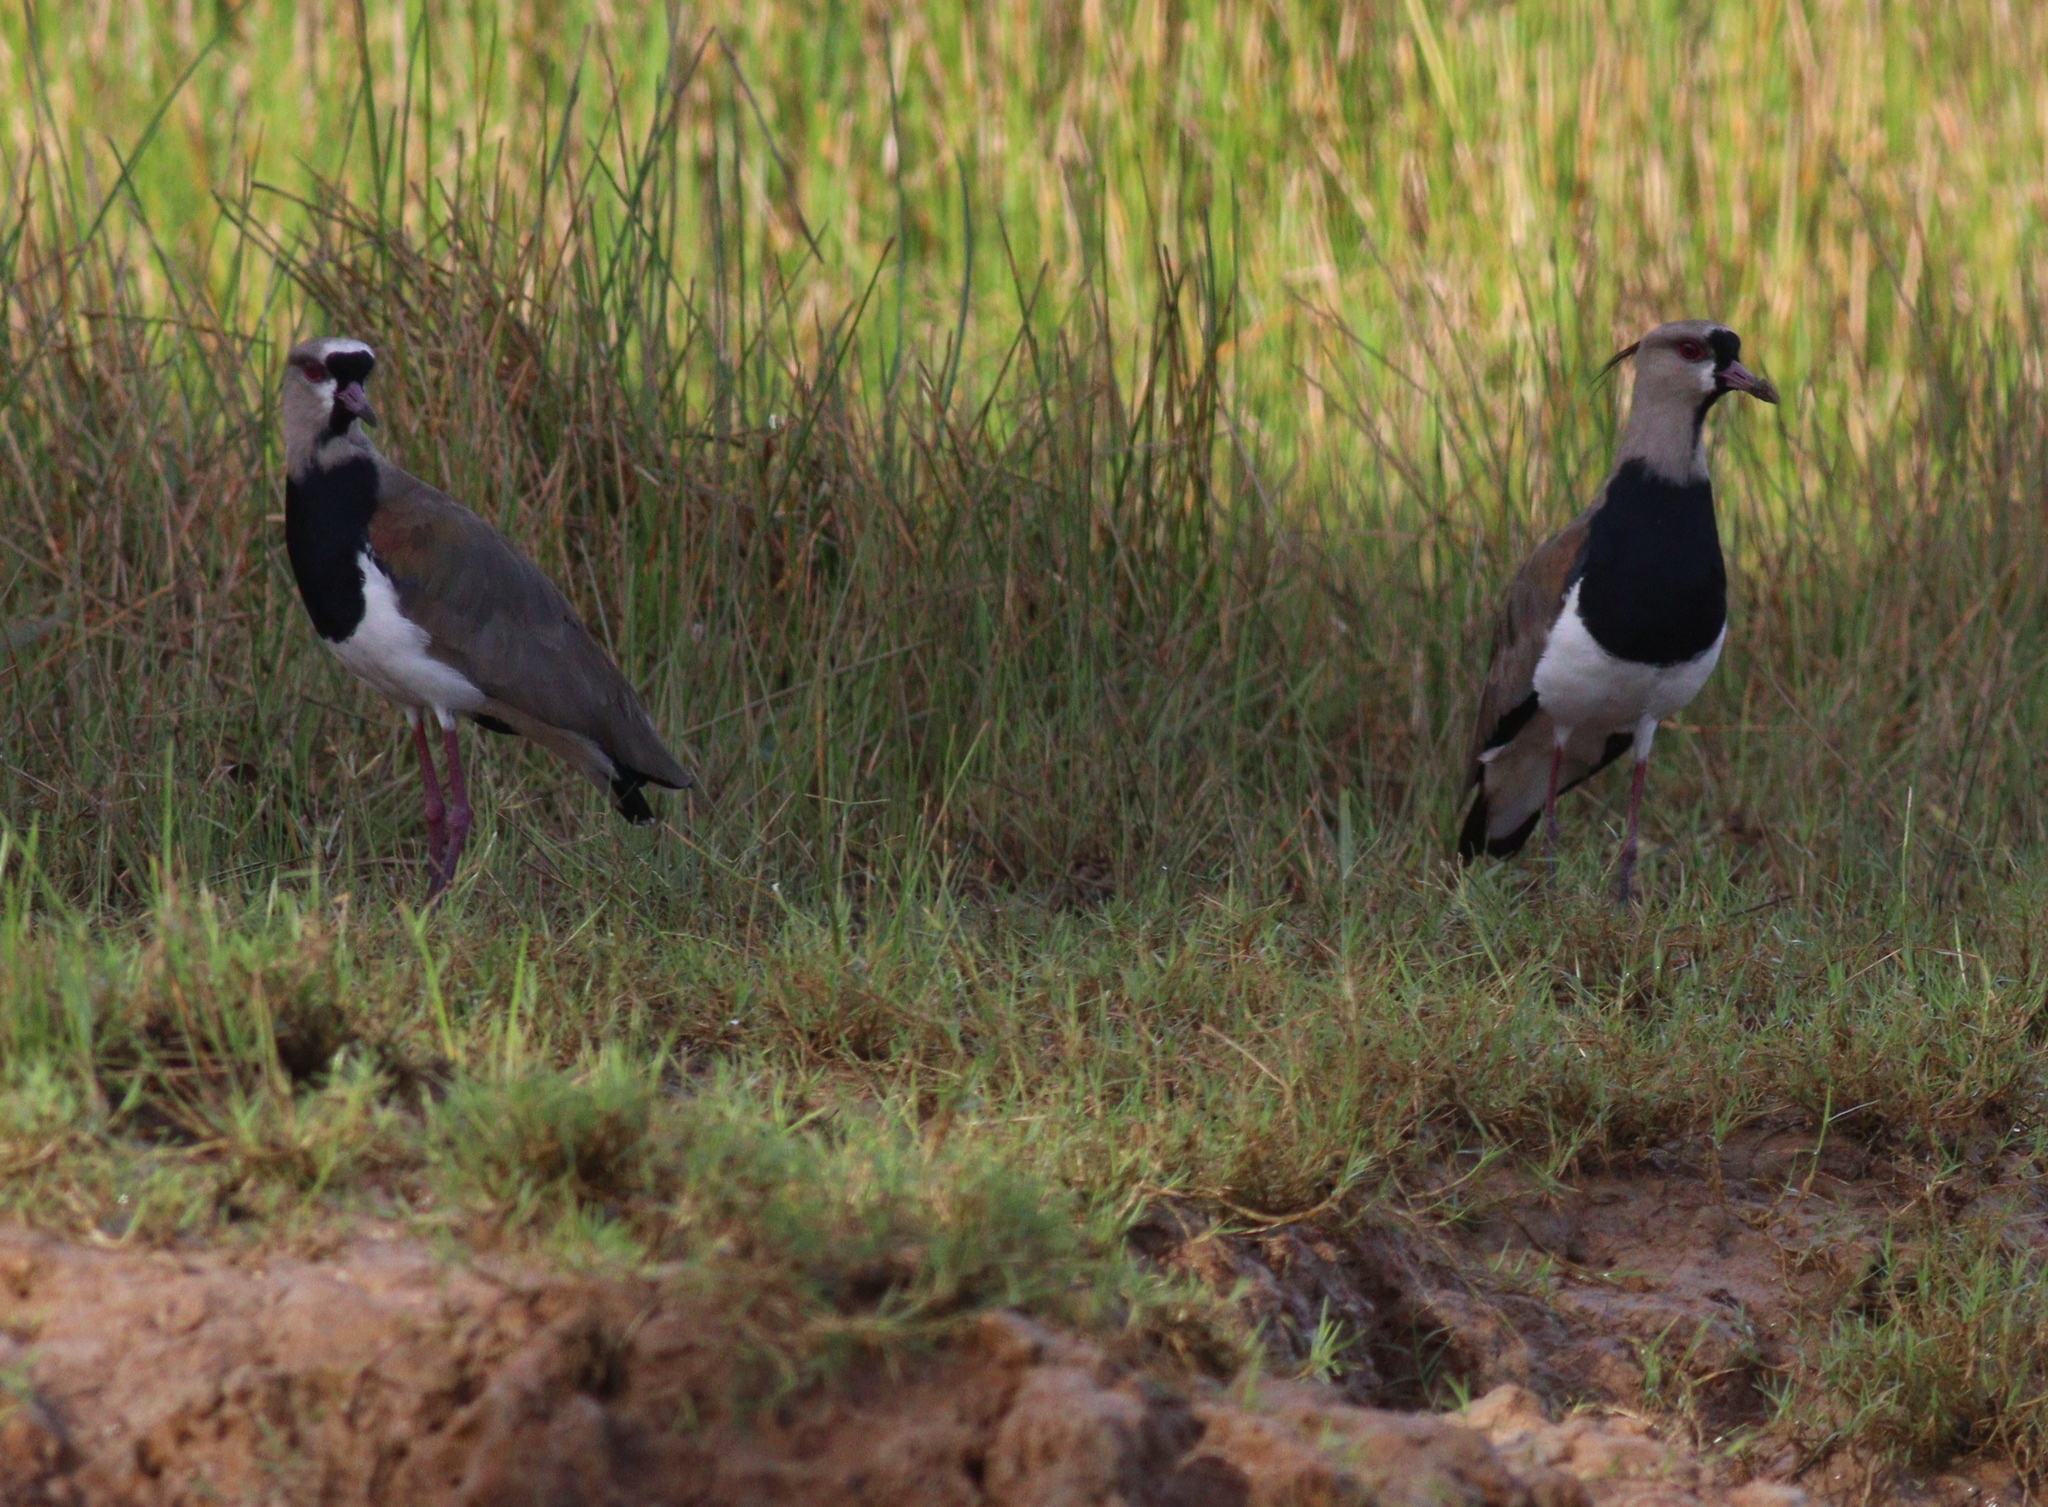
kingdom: Animalia
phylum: Chordata
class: Aves
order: Charadriiformes
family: Charadriidae
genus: Vanellus
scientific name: Vanellus chilensis
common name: Southern lapwing
